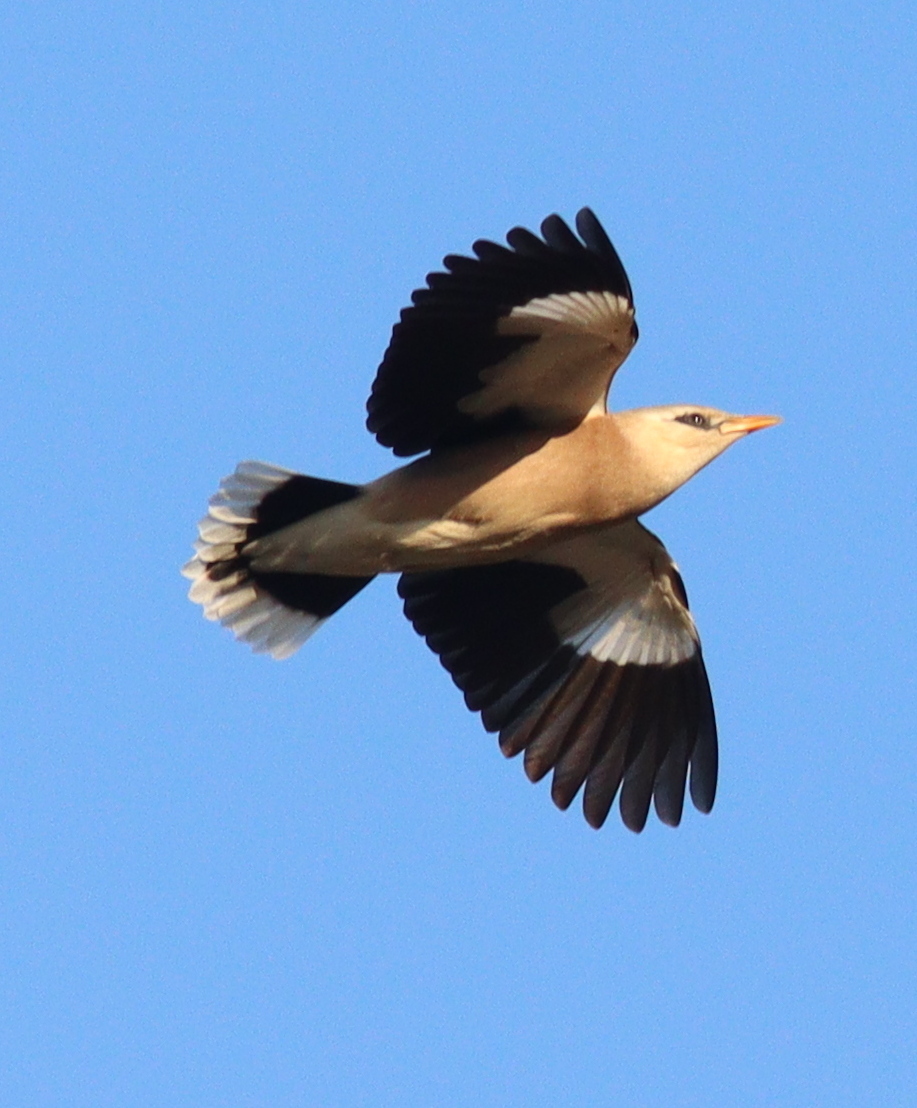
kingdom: Animalia
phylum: Chordata
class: Aves
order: Passeriformes
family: Sturnidae
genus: Acridotheres
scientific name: Acridotheres leucocephalus
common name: Vinous-breasted myna
